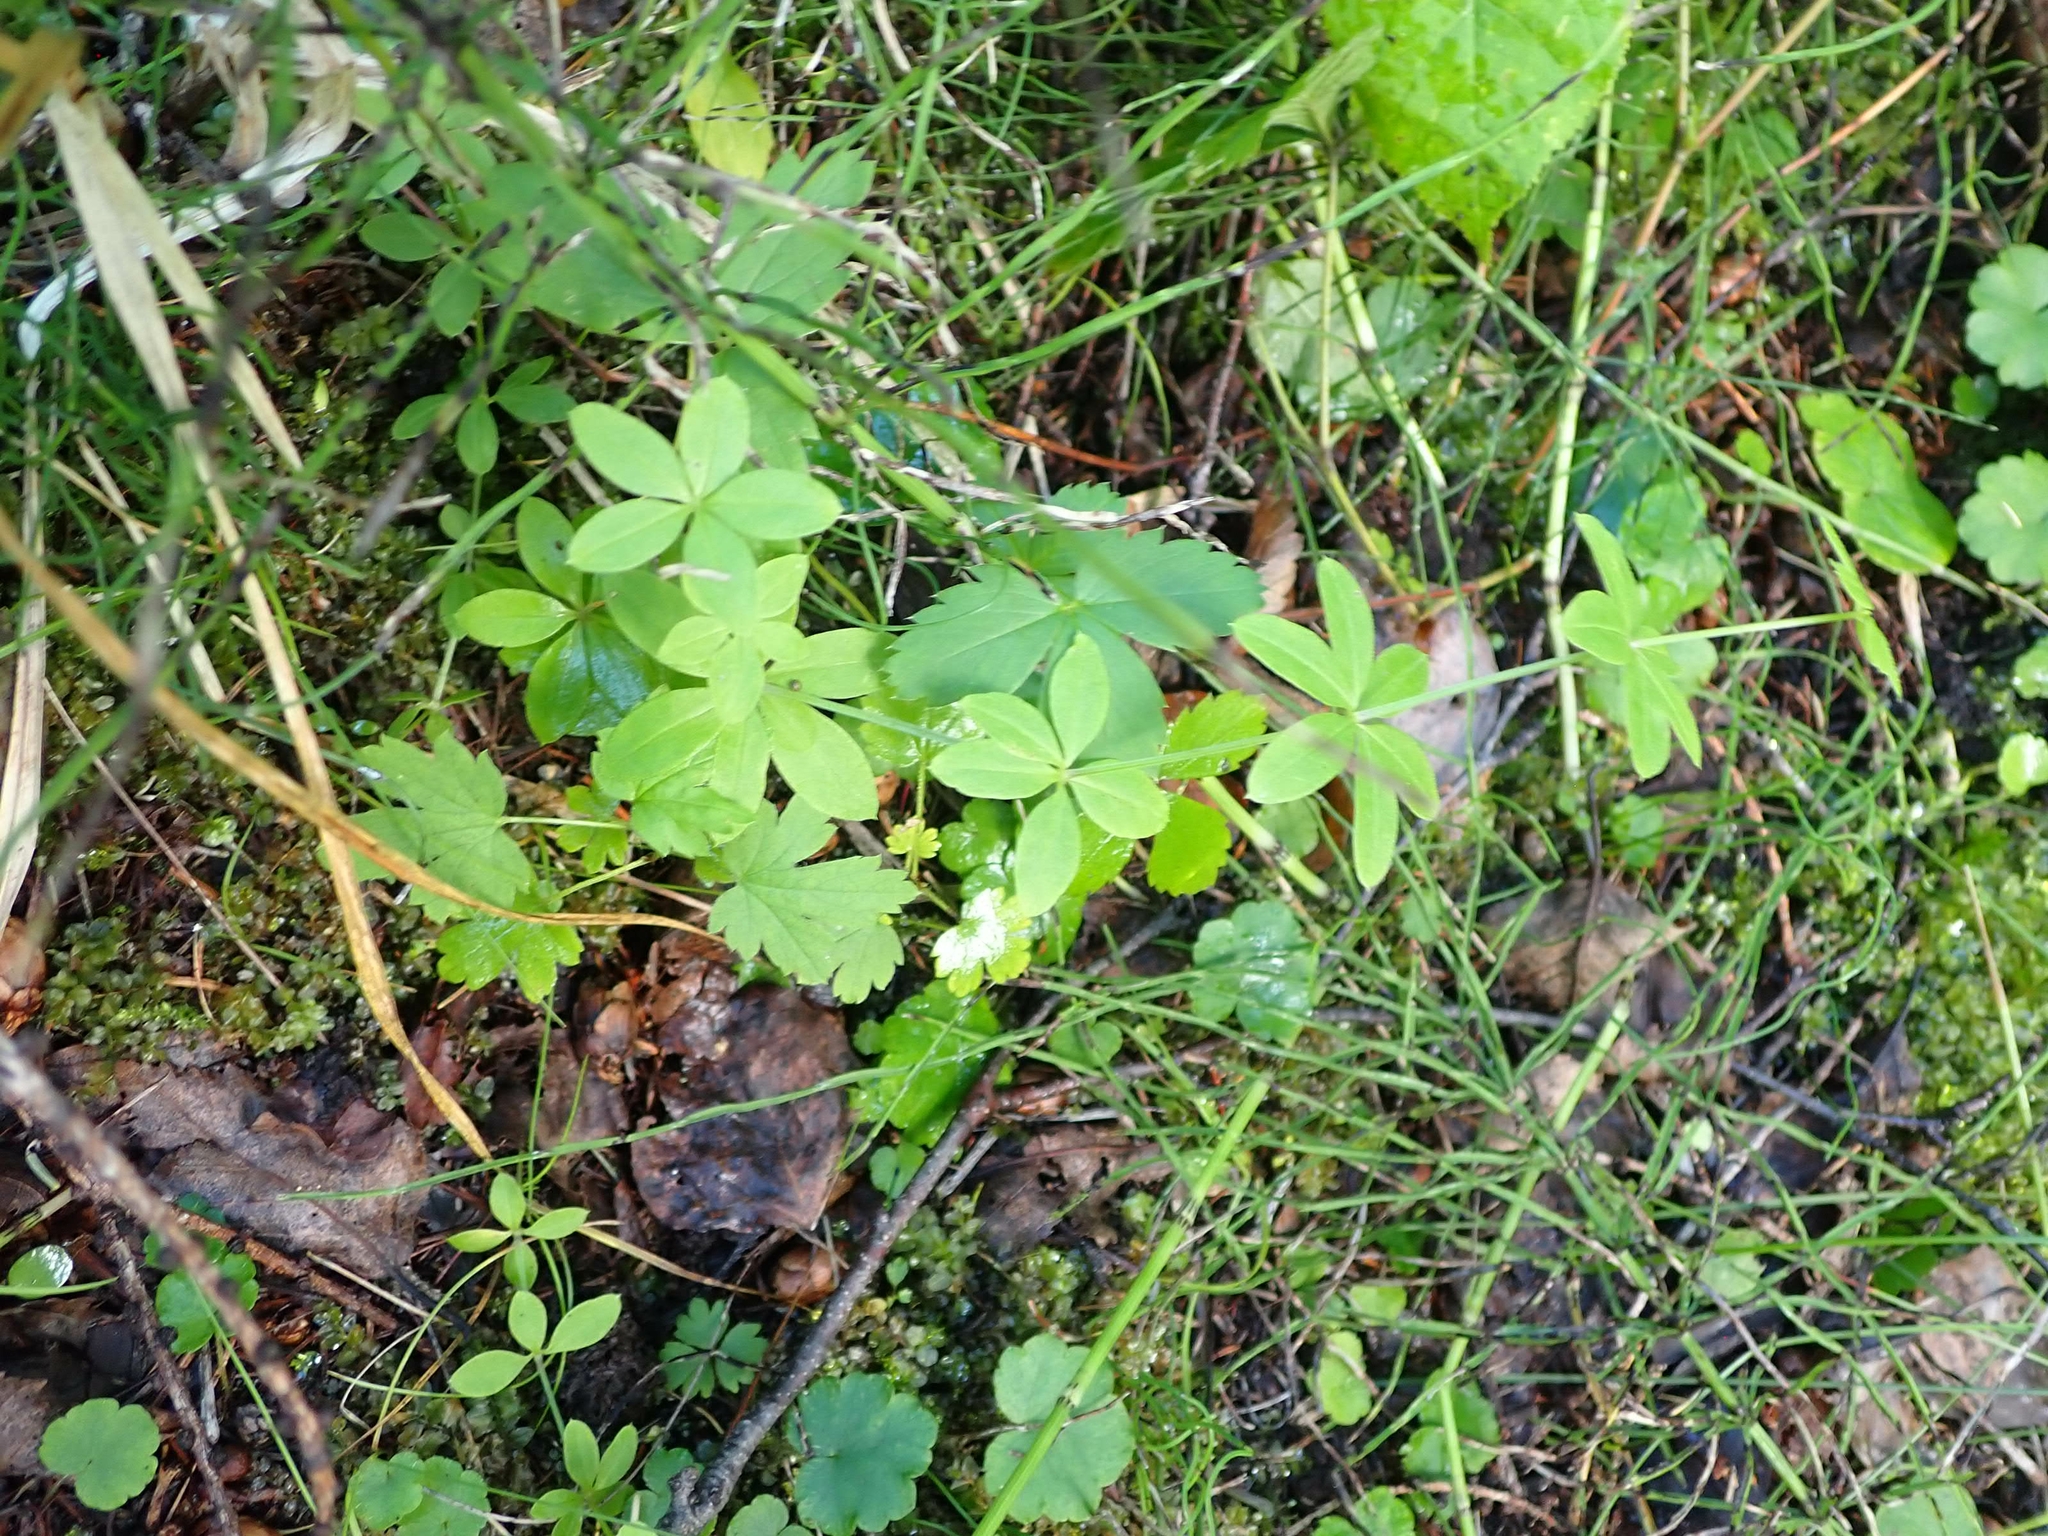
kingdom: Plantae
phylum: Tracheophyta
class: Magnoliopsida
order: Gentianales
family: Rubiaceae
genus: Galium
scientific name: Galium triflorum
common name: Fragrant bedstraw
